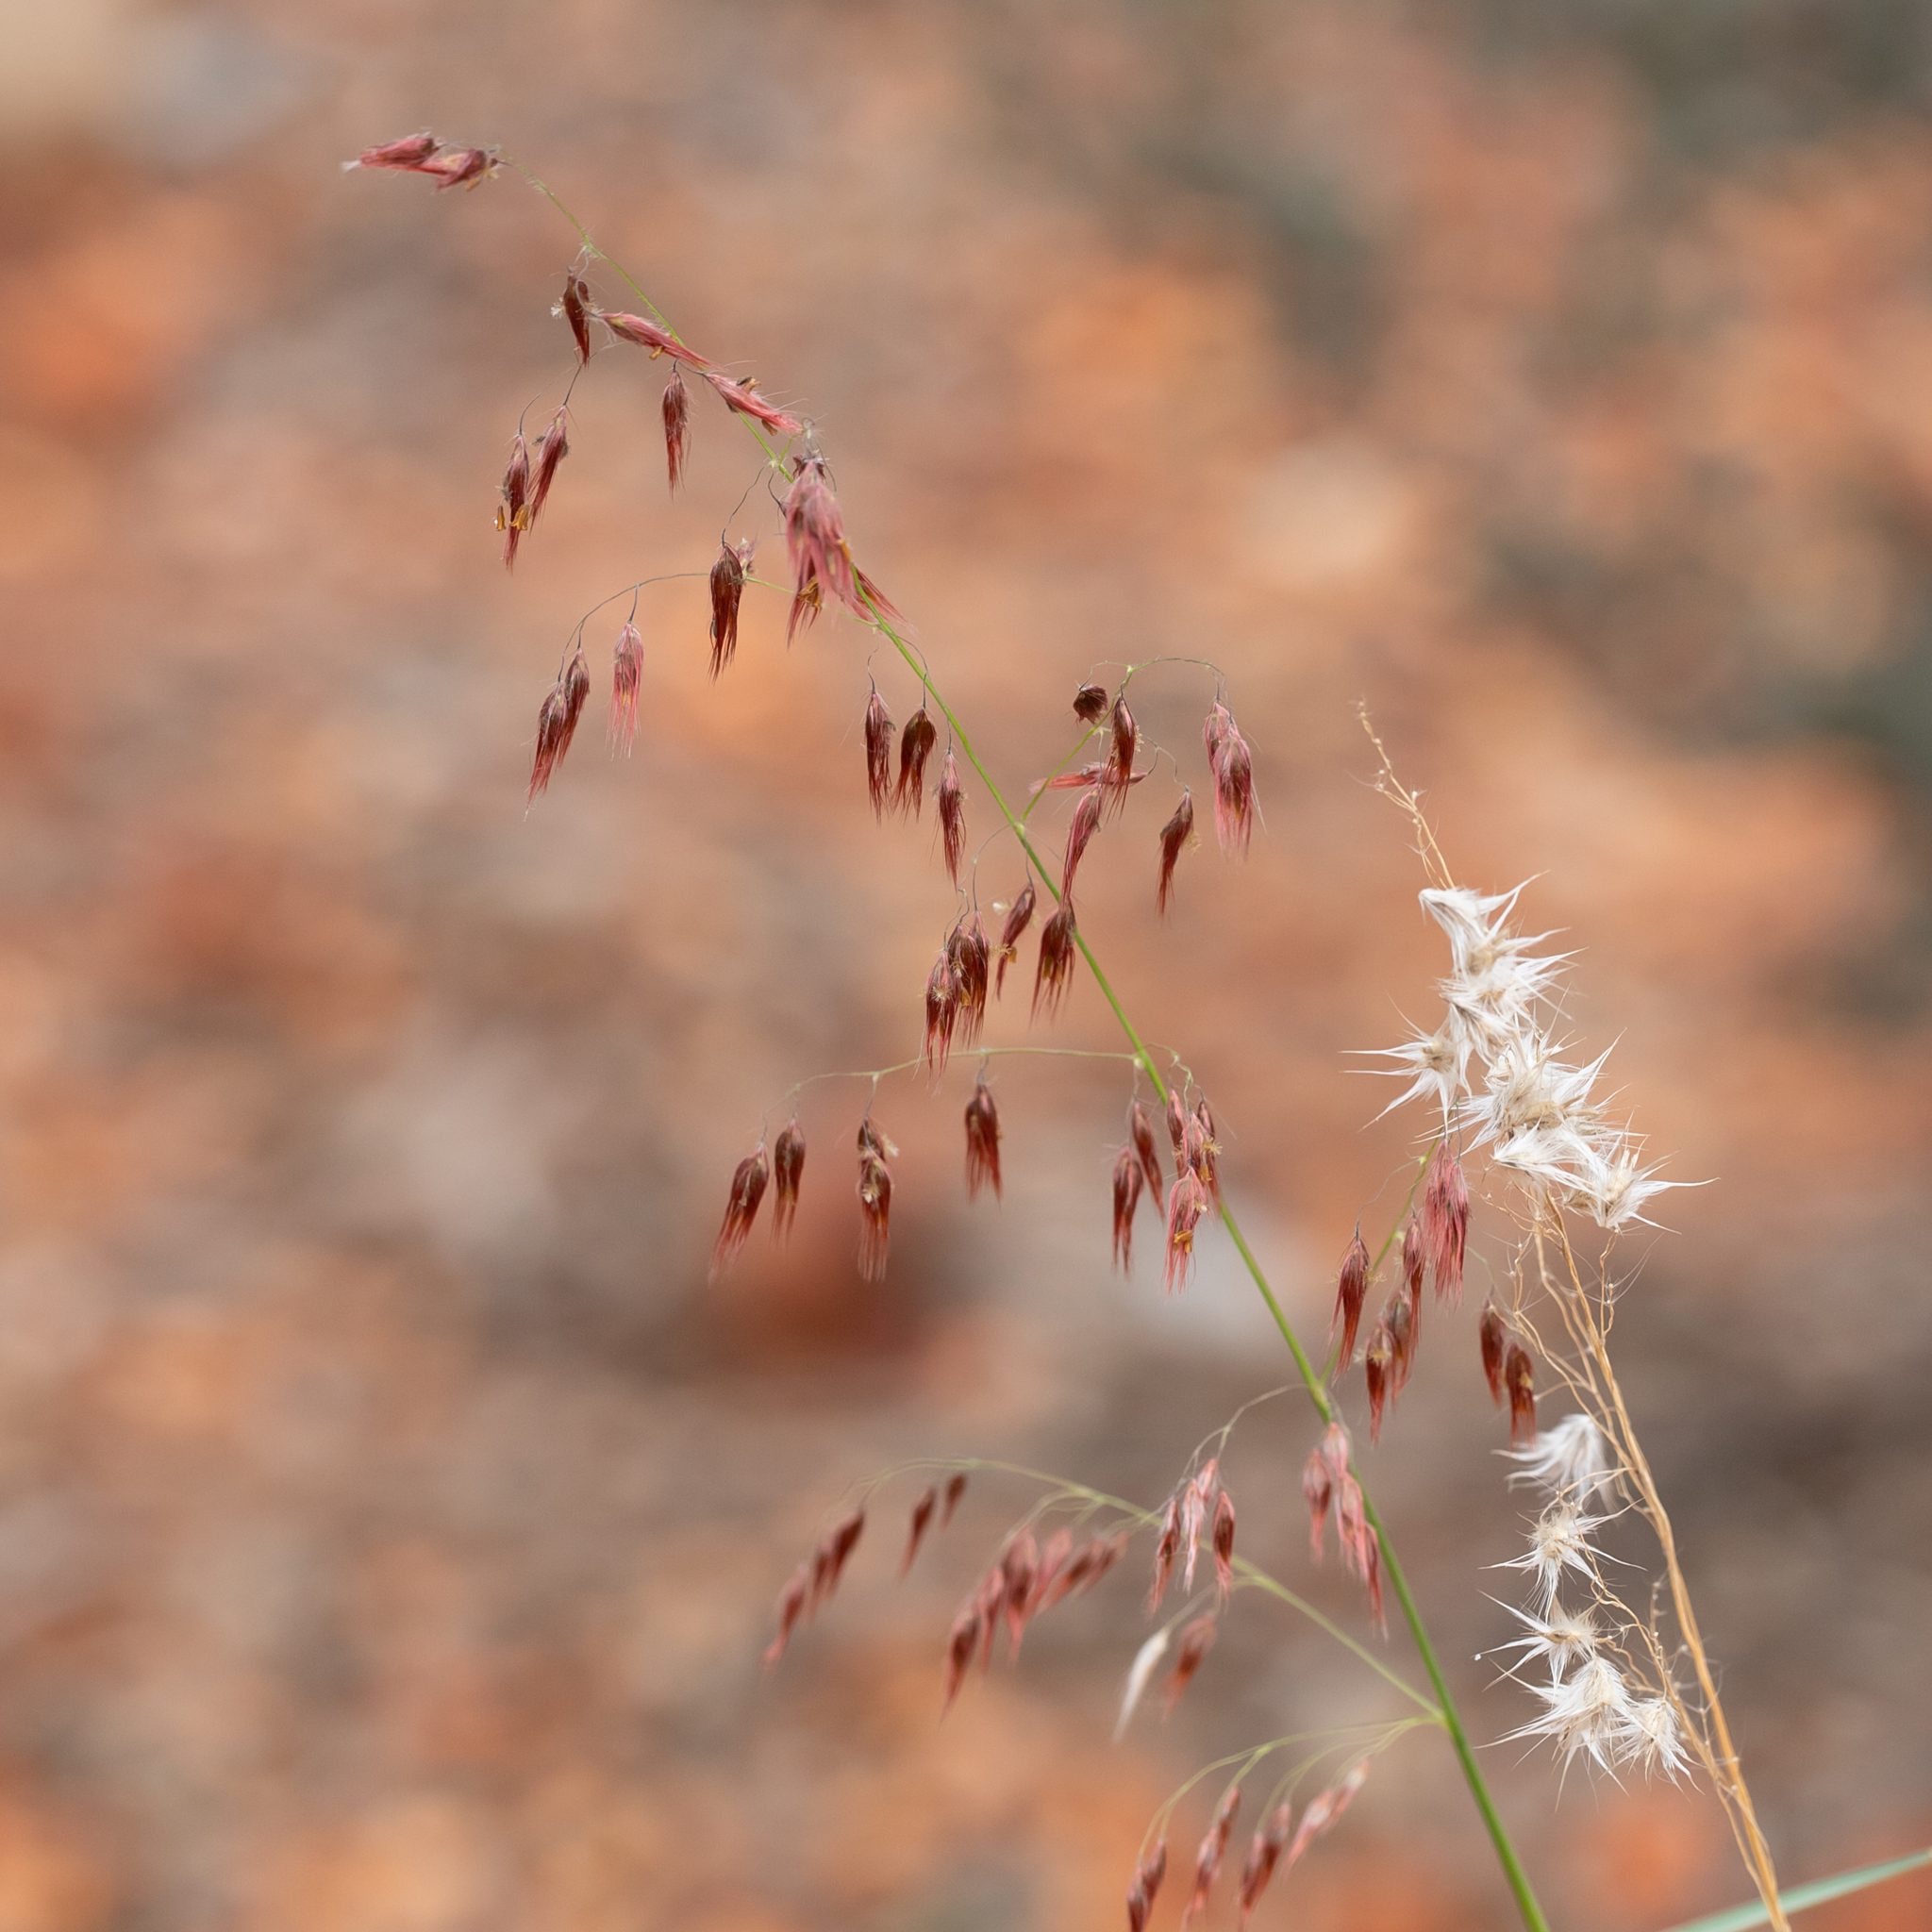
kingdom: Plantae
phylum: Tracheophyta
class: Liliopsida
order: Poales
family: Poaceae
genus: Melinis
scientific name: Melinis repens
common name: Rose natal grass
